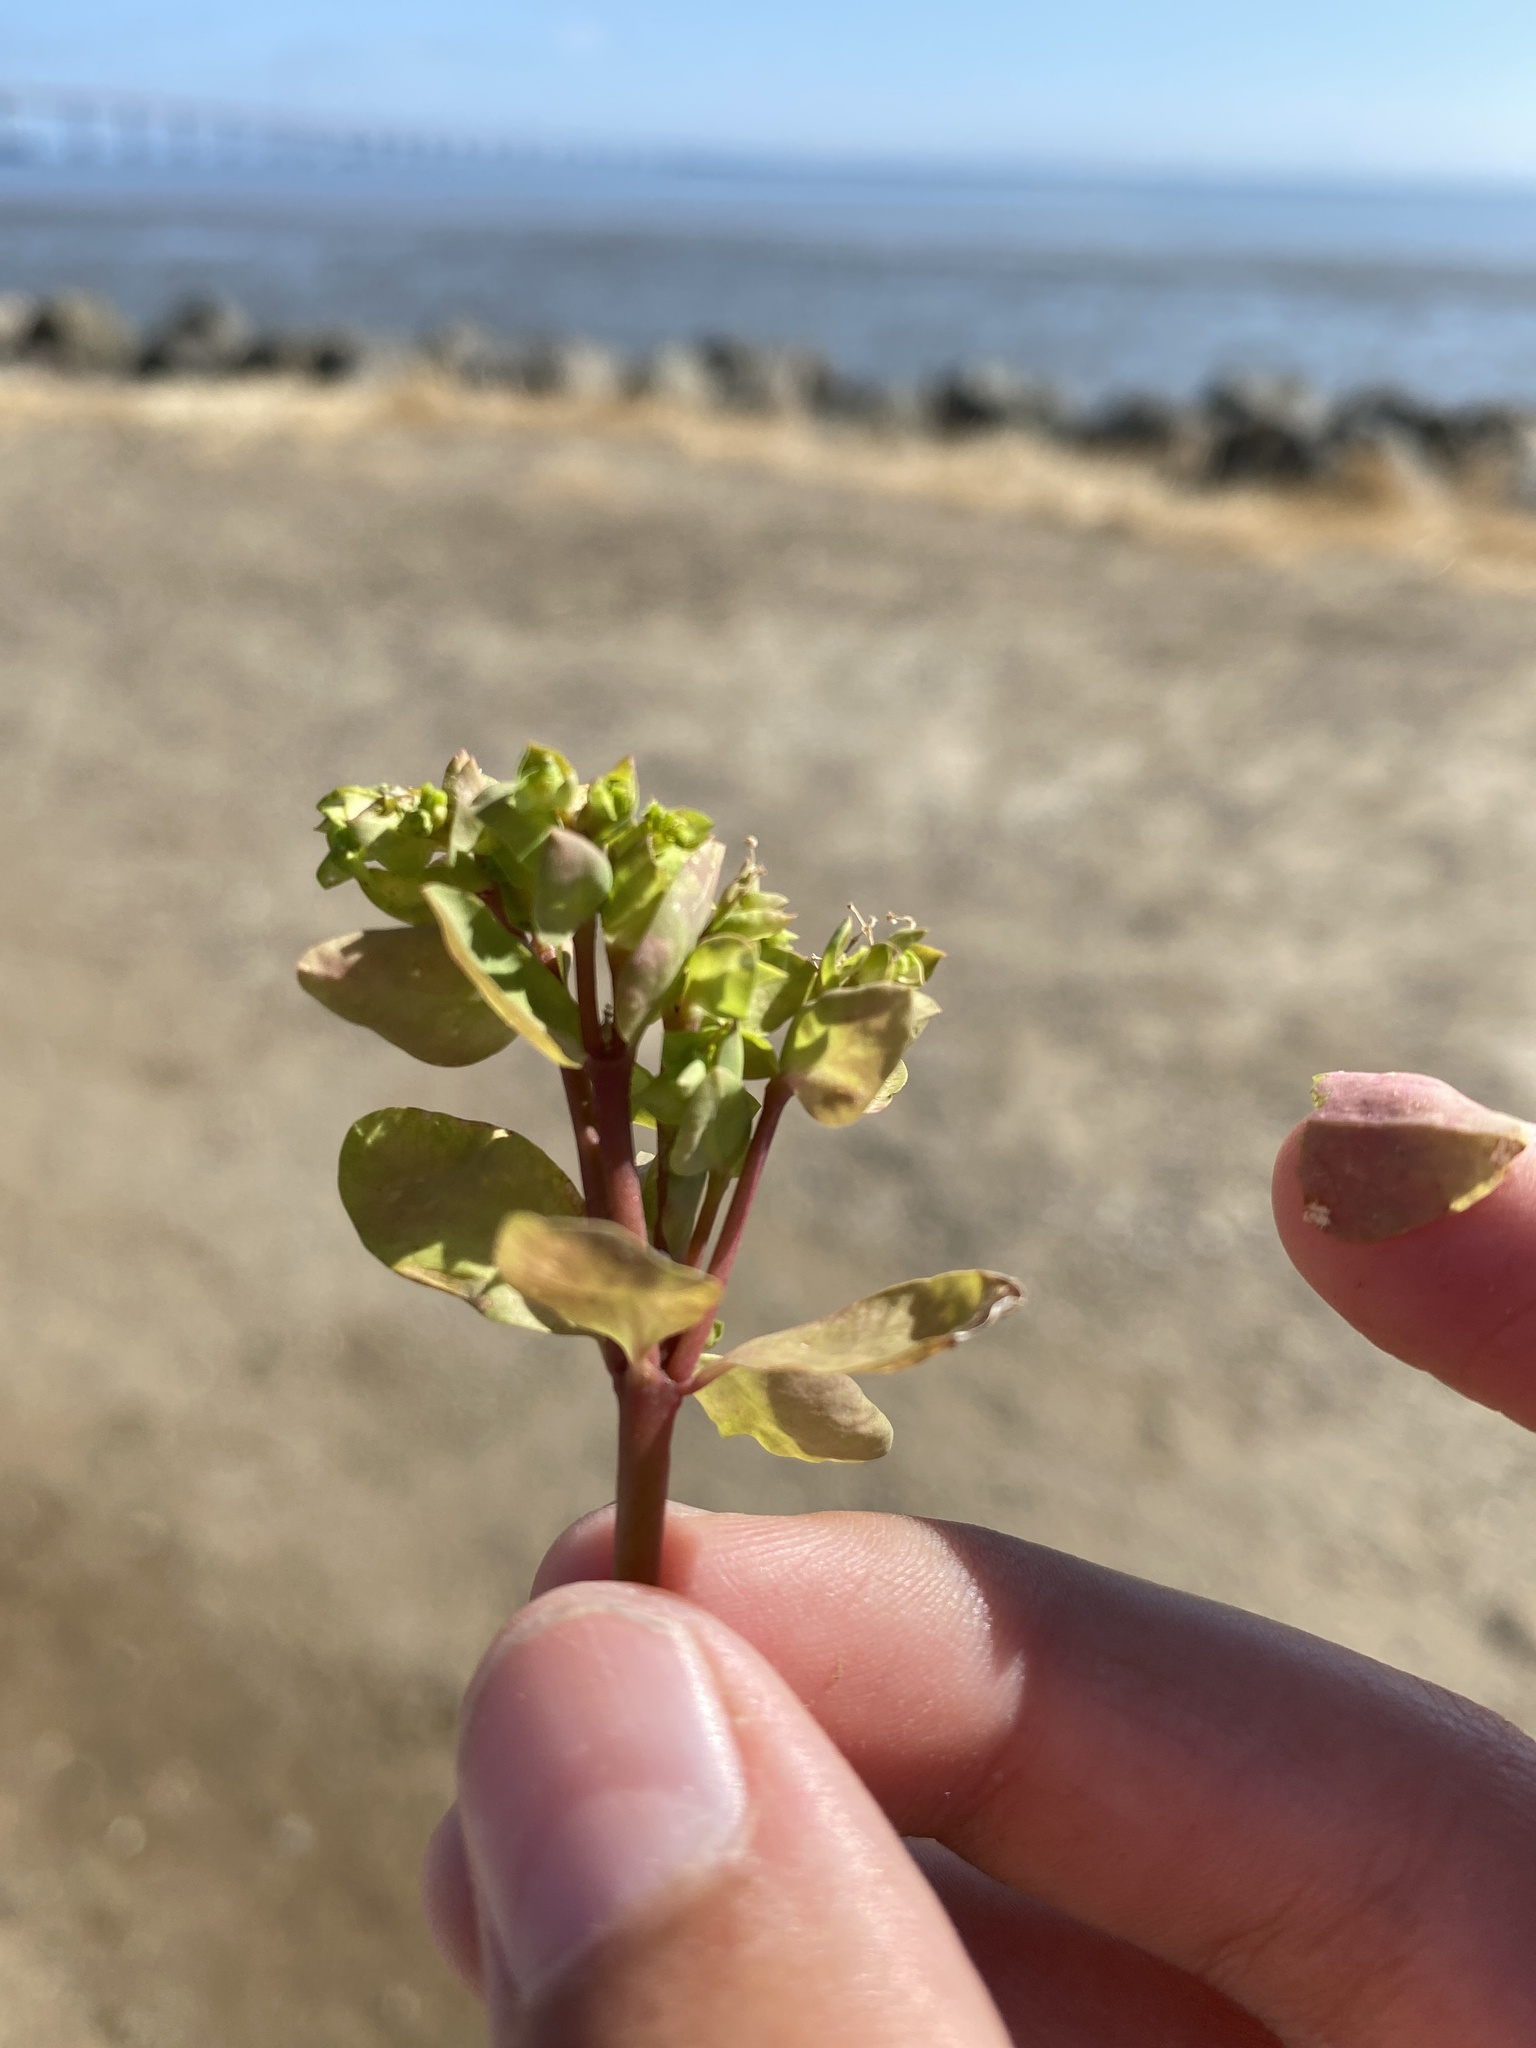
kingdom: Plantae
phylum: Tracheophyta
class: Magnoliopsida
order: Malpighiales
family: Euphorbiaceae
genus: Euphorbia
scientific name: Euphorbia peplus
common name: Petty spurge
